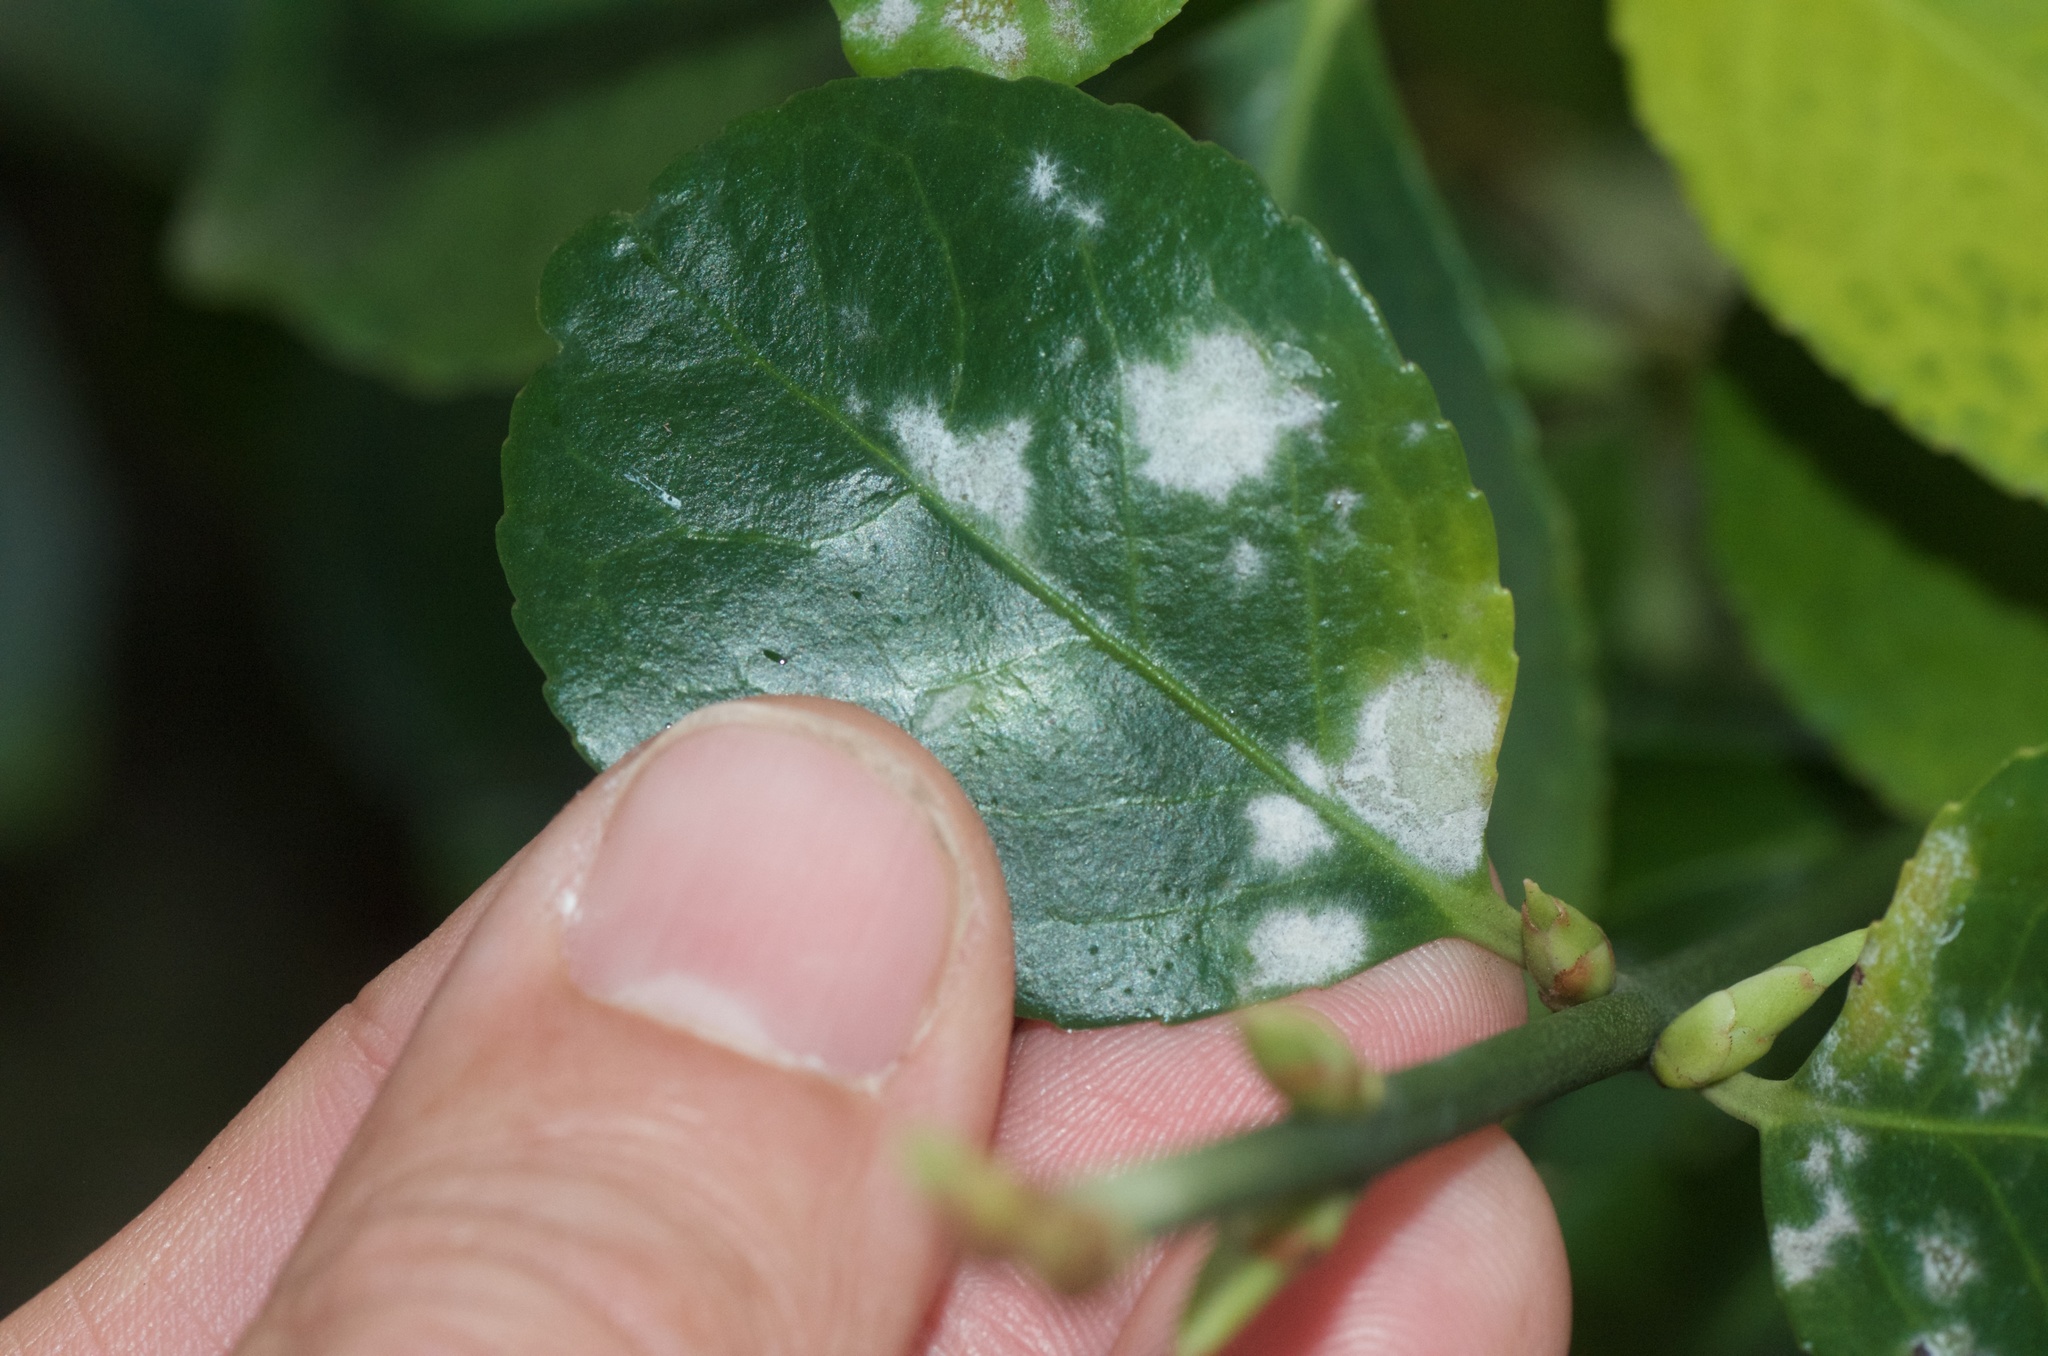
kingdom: Fungi
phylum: Ascomycota
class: Leotiomycetes
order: Helotiales
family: Erysiphaceae
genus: Erysiphe
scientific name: Erysiphe euonymicola
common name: Spindletree mildew
